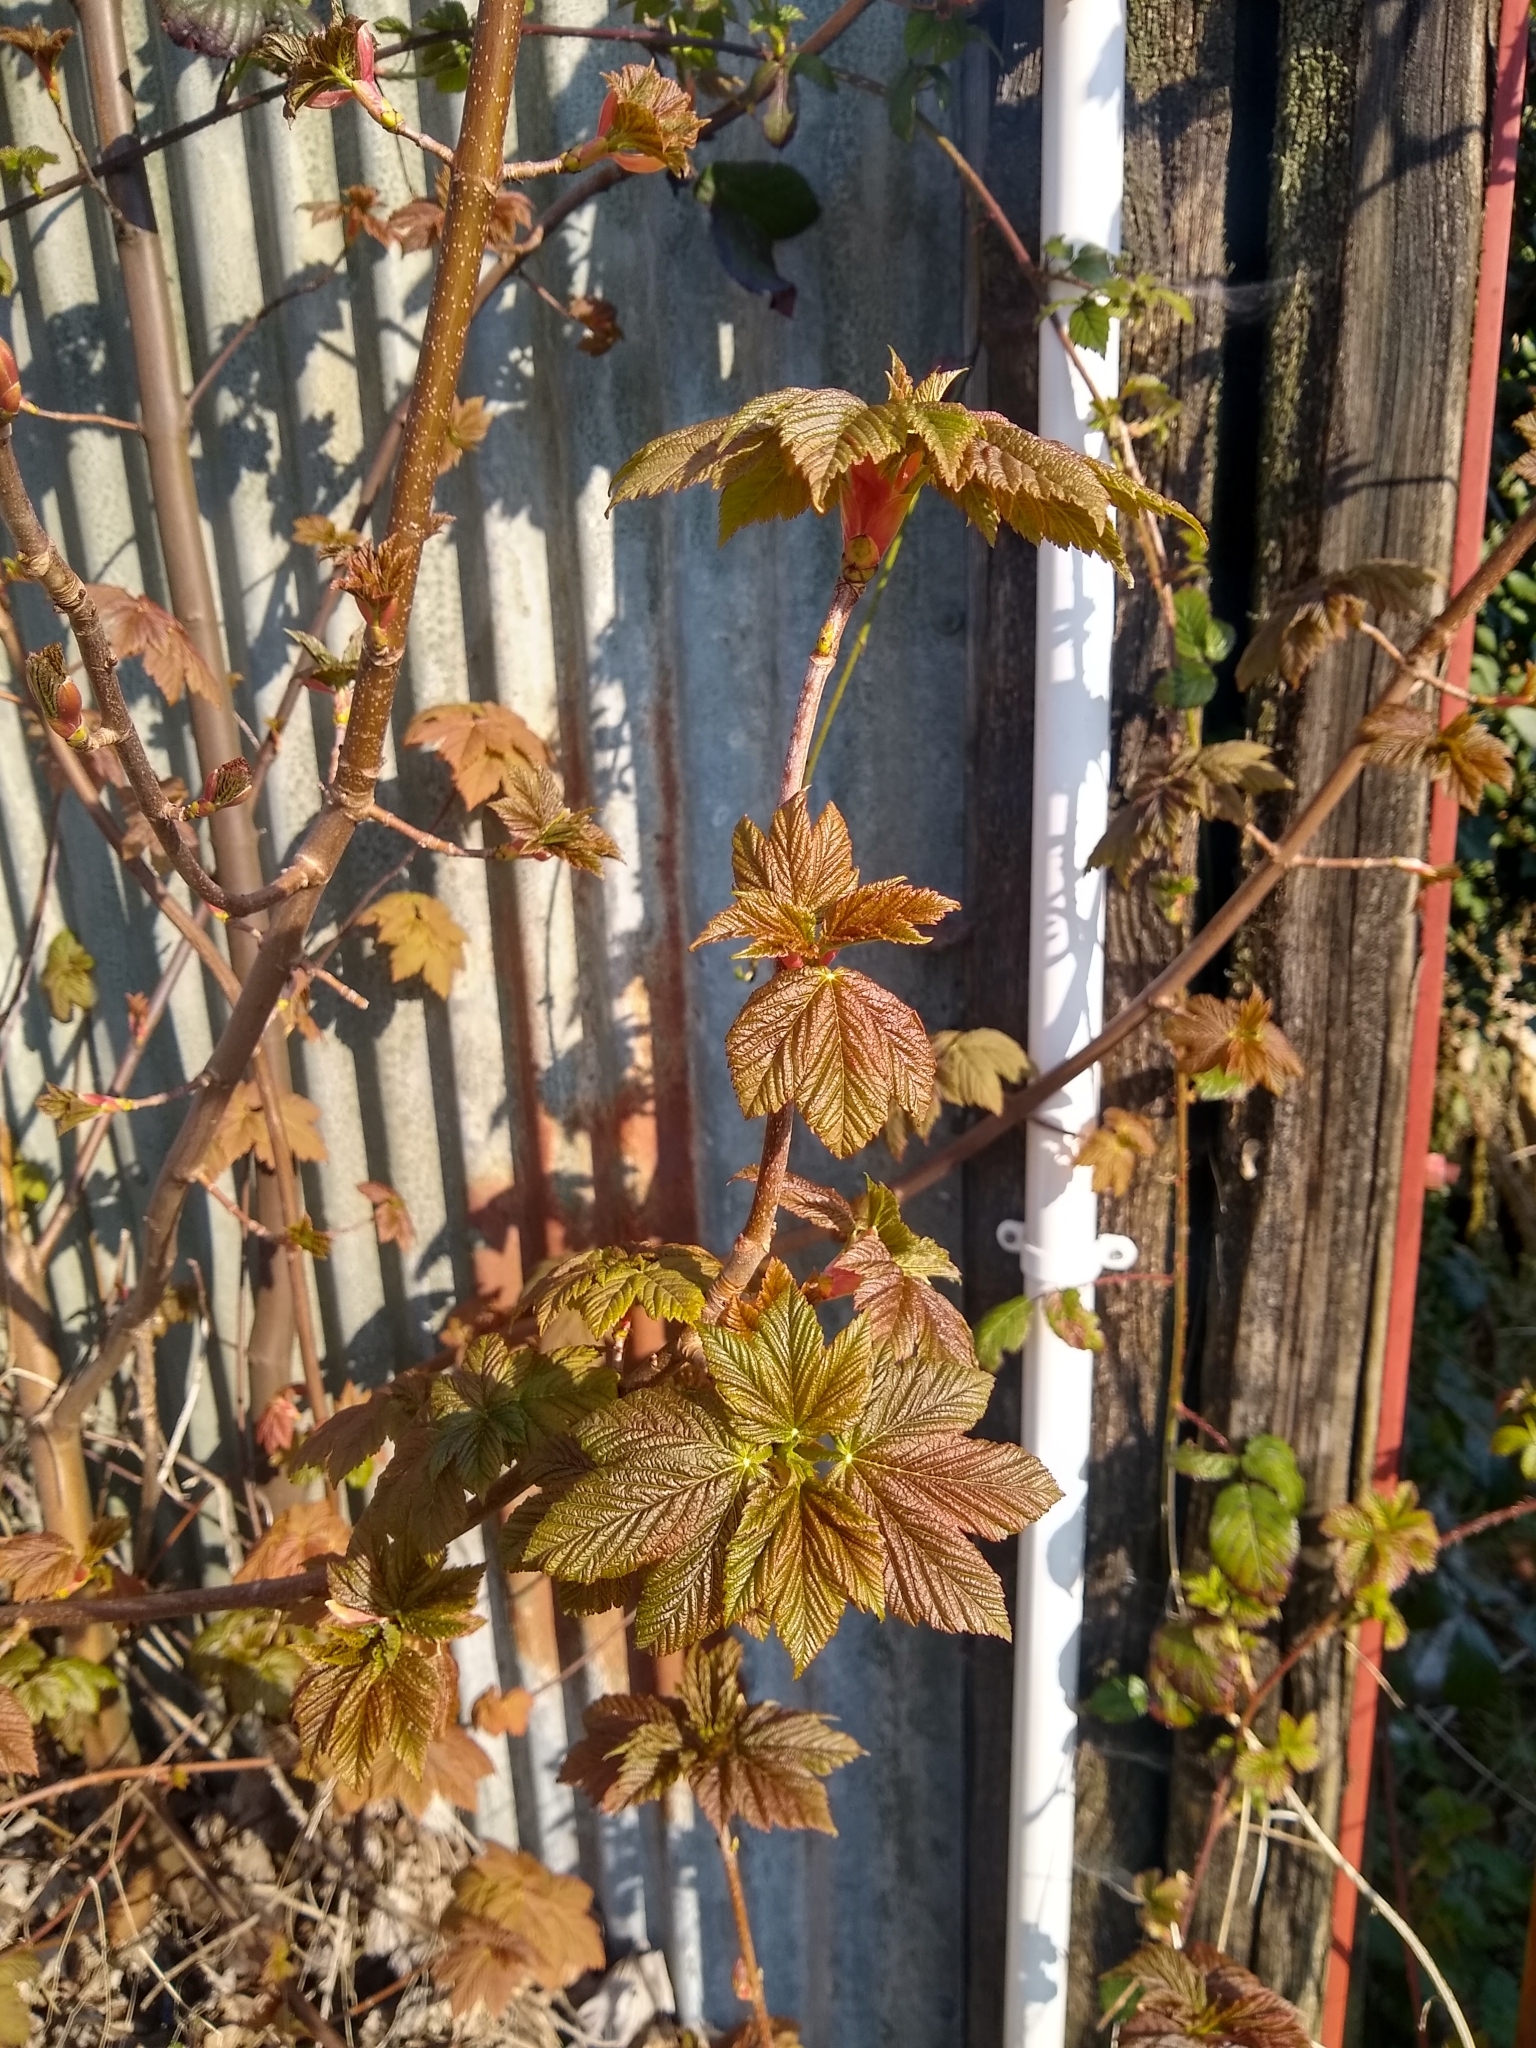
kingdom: Plantae
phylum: Tracheophyta
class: Magnoliopsida
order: Sapindales
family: Sapindaceae
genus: Acer
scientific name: Acer pseudoplatanus
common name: Sycamore
